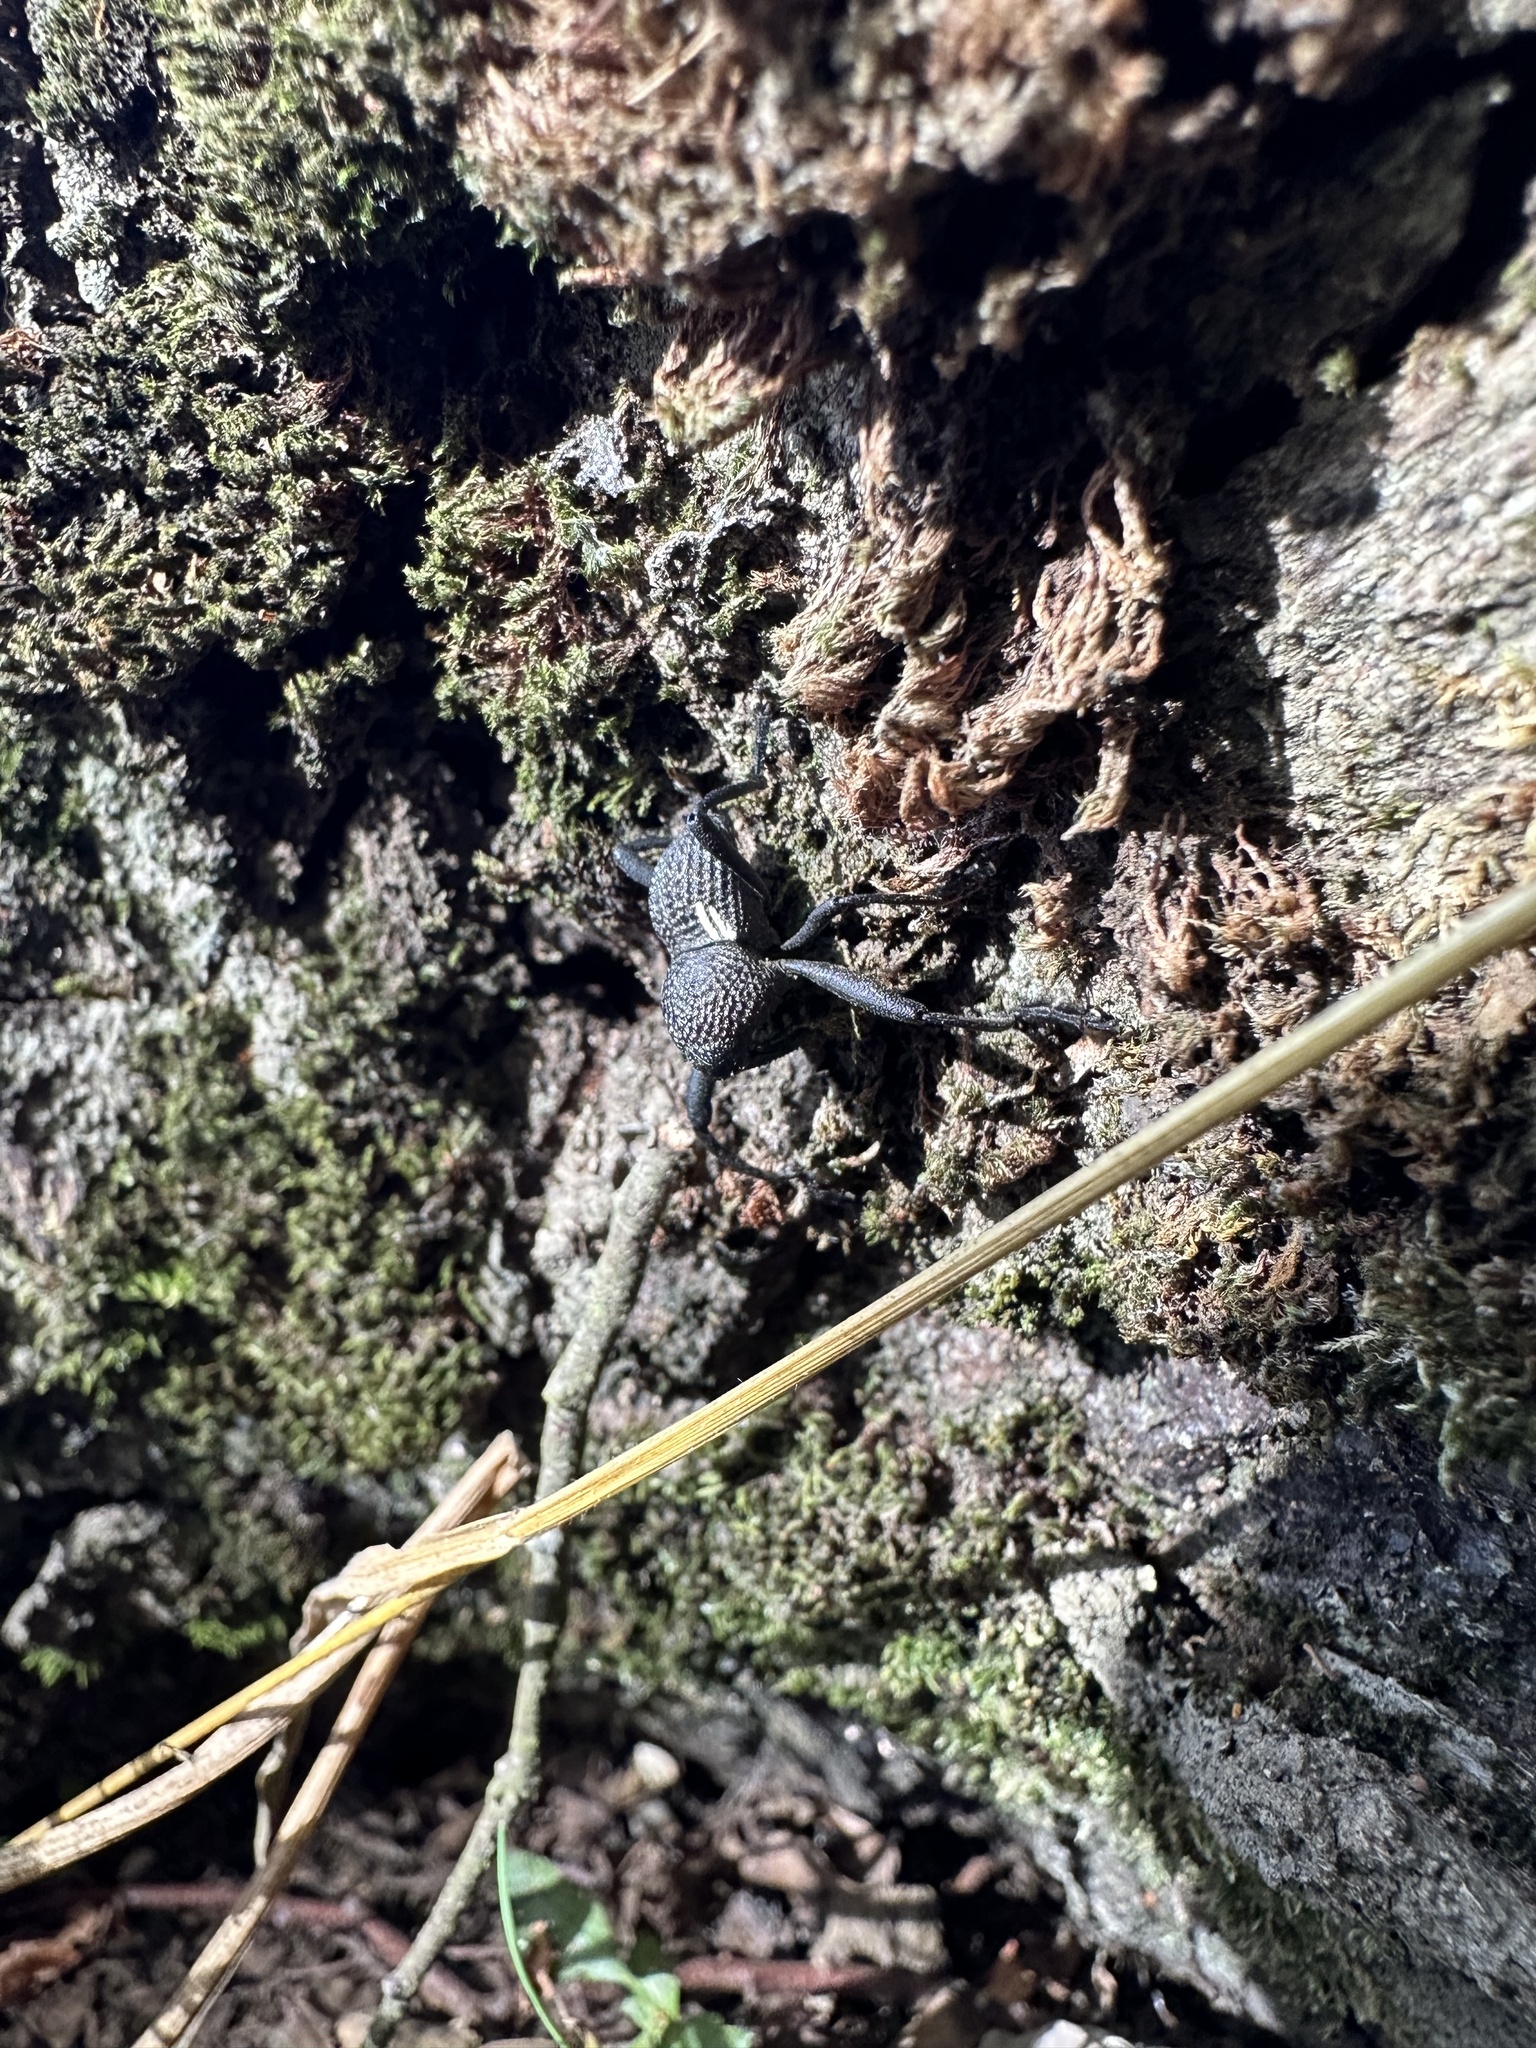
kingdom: Animalia
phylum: Arthropoda
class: Insecta
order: Coleoptera
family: Curculionidae
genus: Rhyephenes
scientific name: Rhyephenes humeralis
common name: Araè±ita chilena del pino
